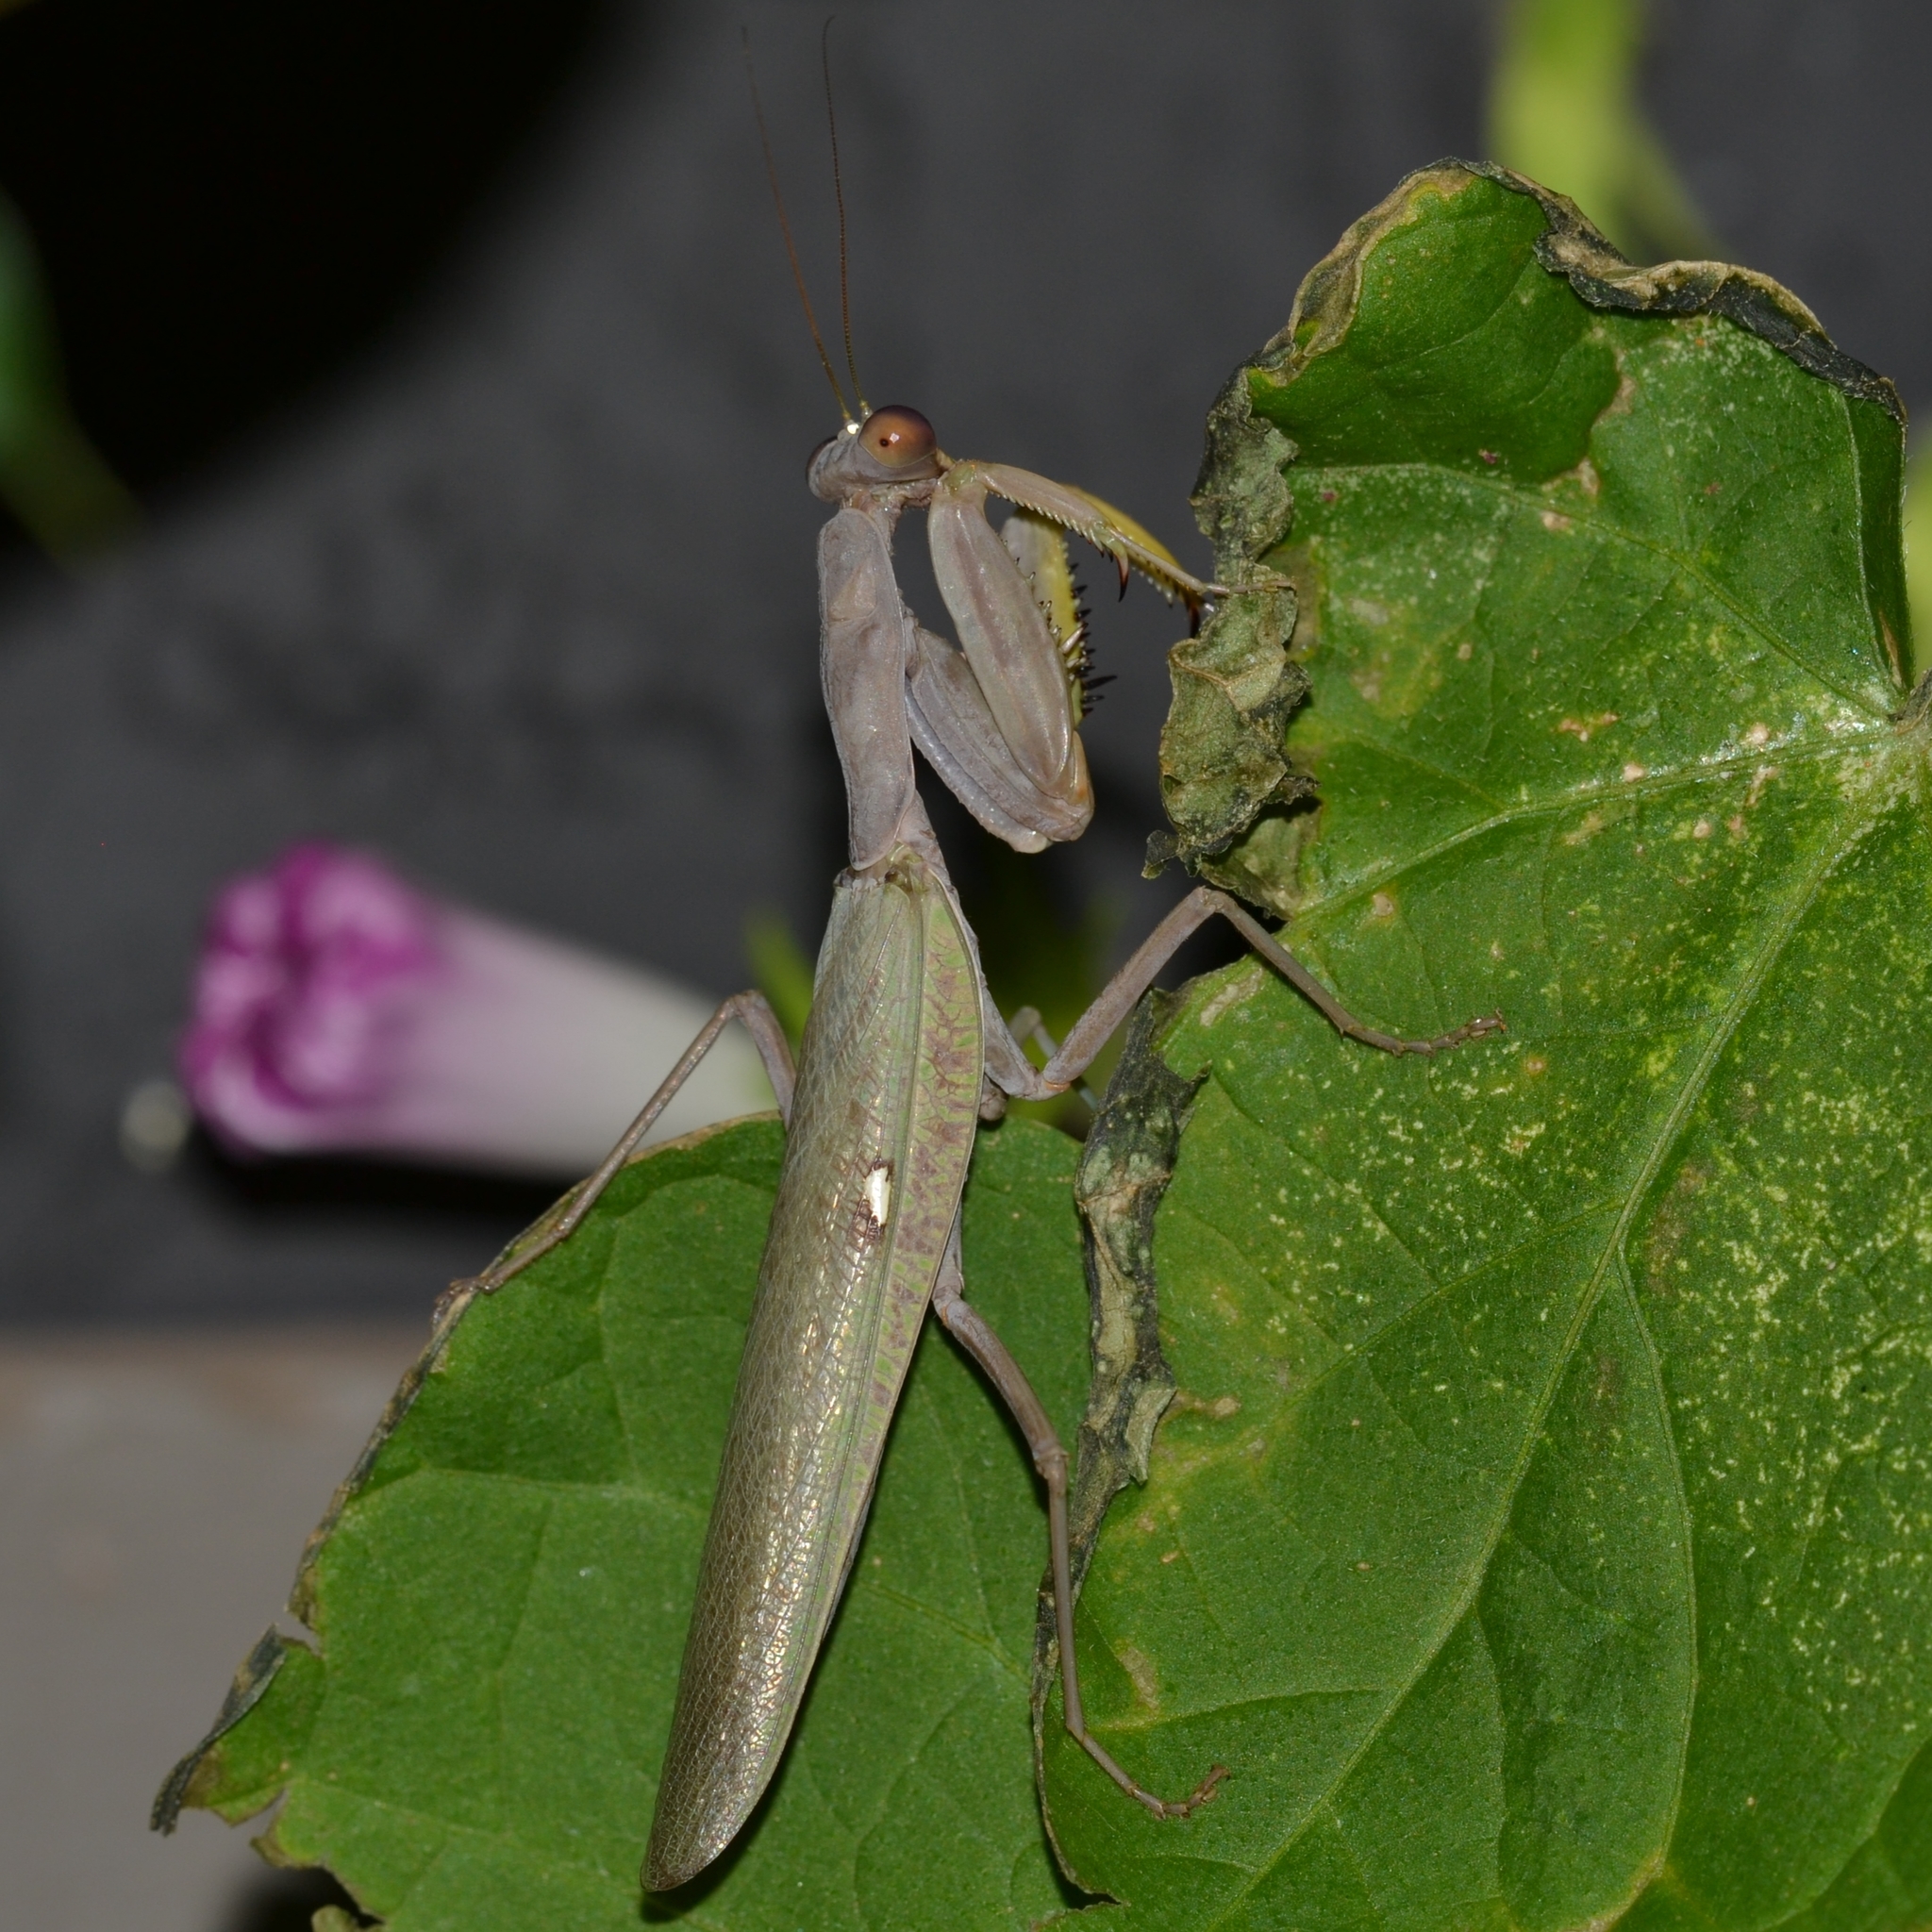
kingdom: Animalia
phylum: Arthropoda
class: Insecta
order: Mantodea
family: Mantidae
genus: Hierodula
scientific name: Hierodula patellifera
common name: Asian mantis
